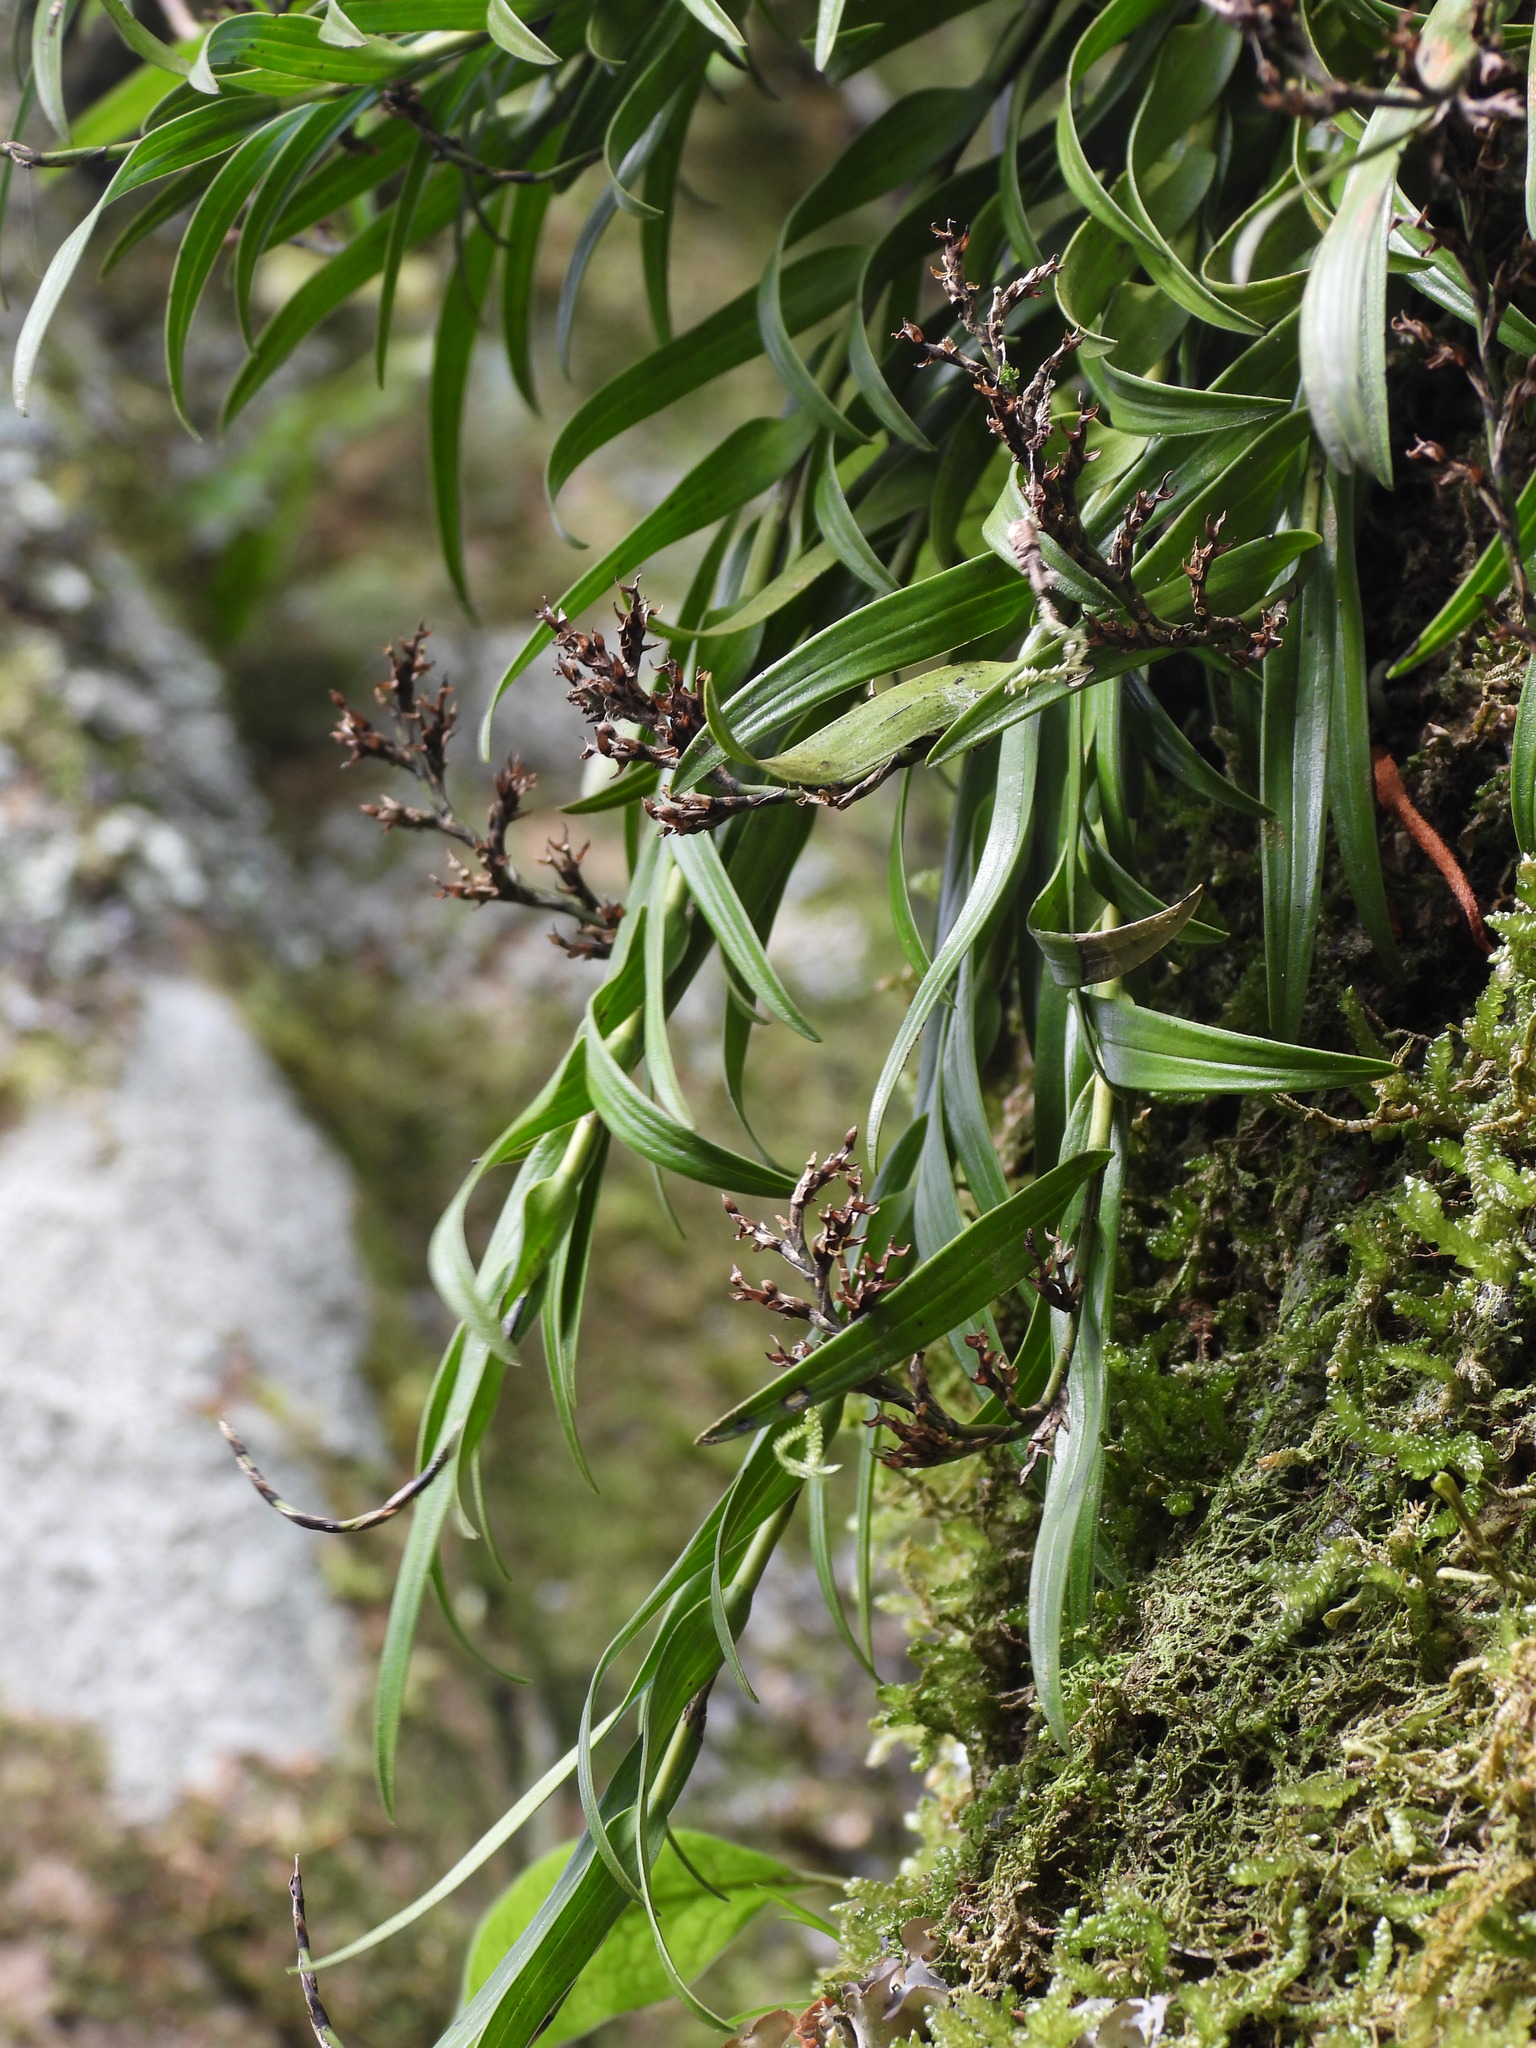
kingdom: Plantae
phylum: Tracheophyta
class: Liliopsida
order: Asparagales
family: Orchidaceae
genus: Earina
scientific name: Earina autumnalis
